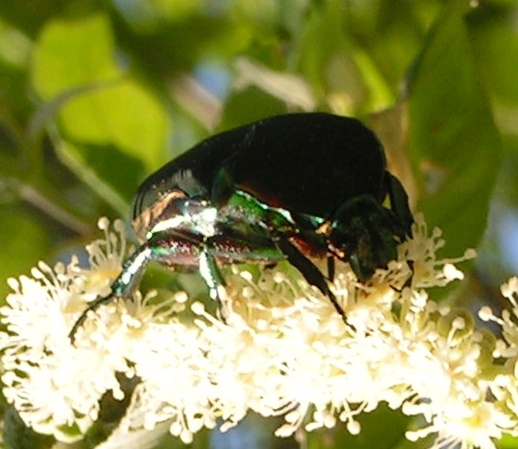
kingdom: Animalia
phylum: Arthropoda
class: Insecta
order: Coleoptera
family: Scarabaeidae
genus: Cotinis
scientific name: Cotinis
